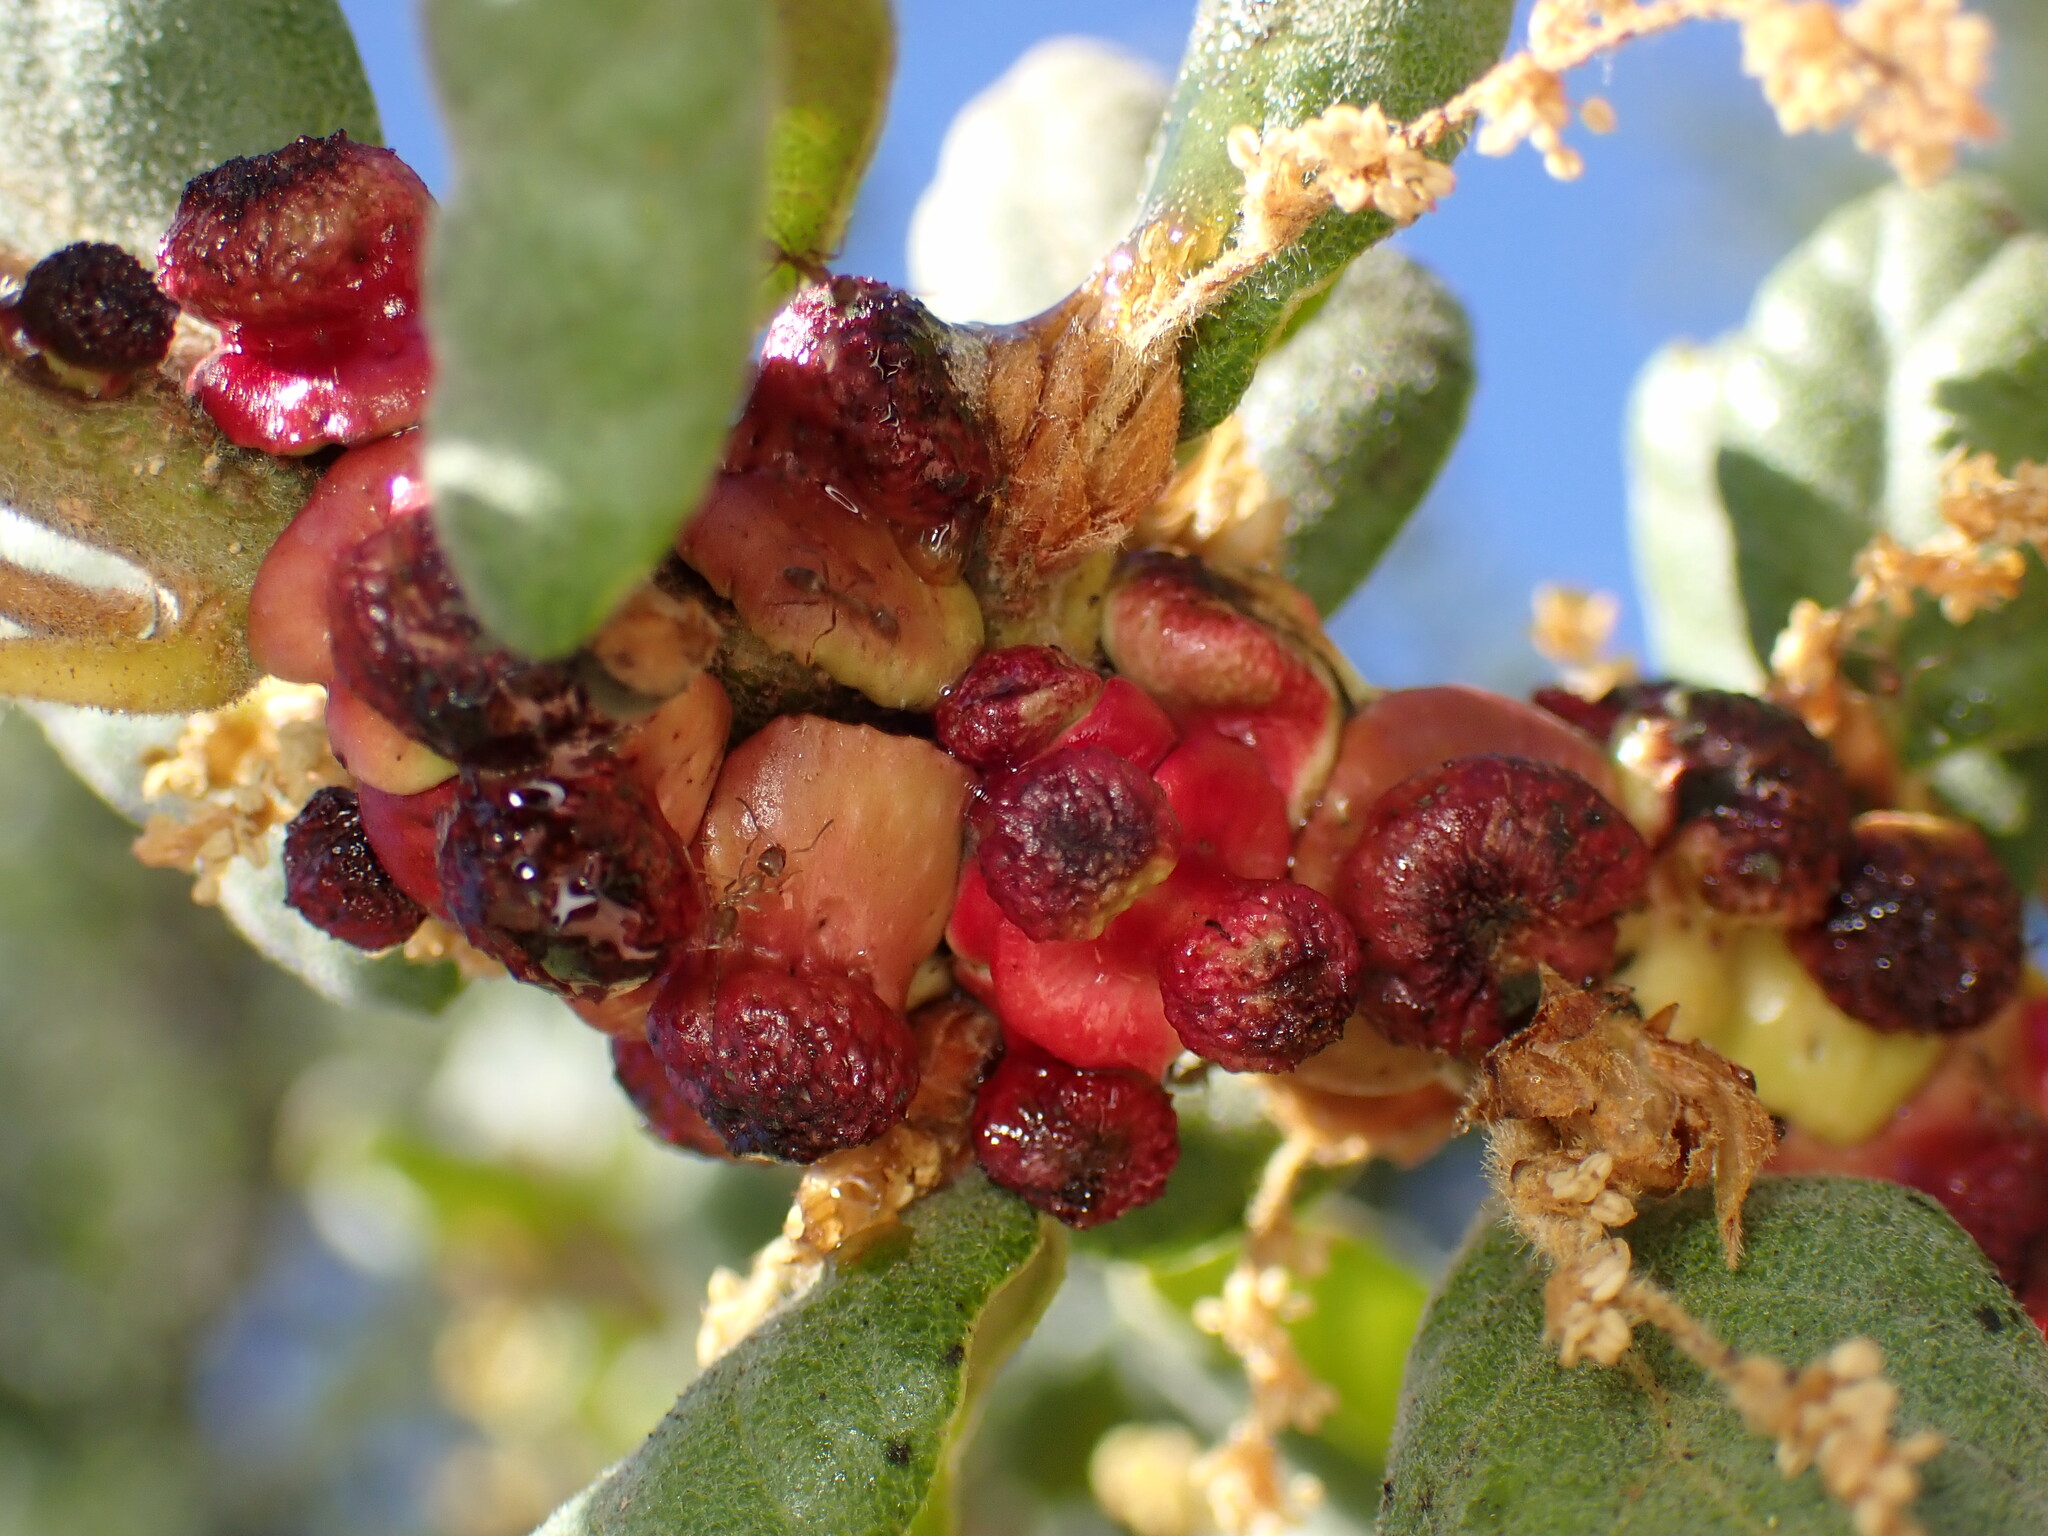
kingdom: Animalia
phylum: Arthropoda
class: Insecta
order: Hymenoptera
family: Cynipidae
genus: Disholcaspis
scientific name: Disholcaspis prehensa
